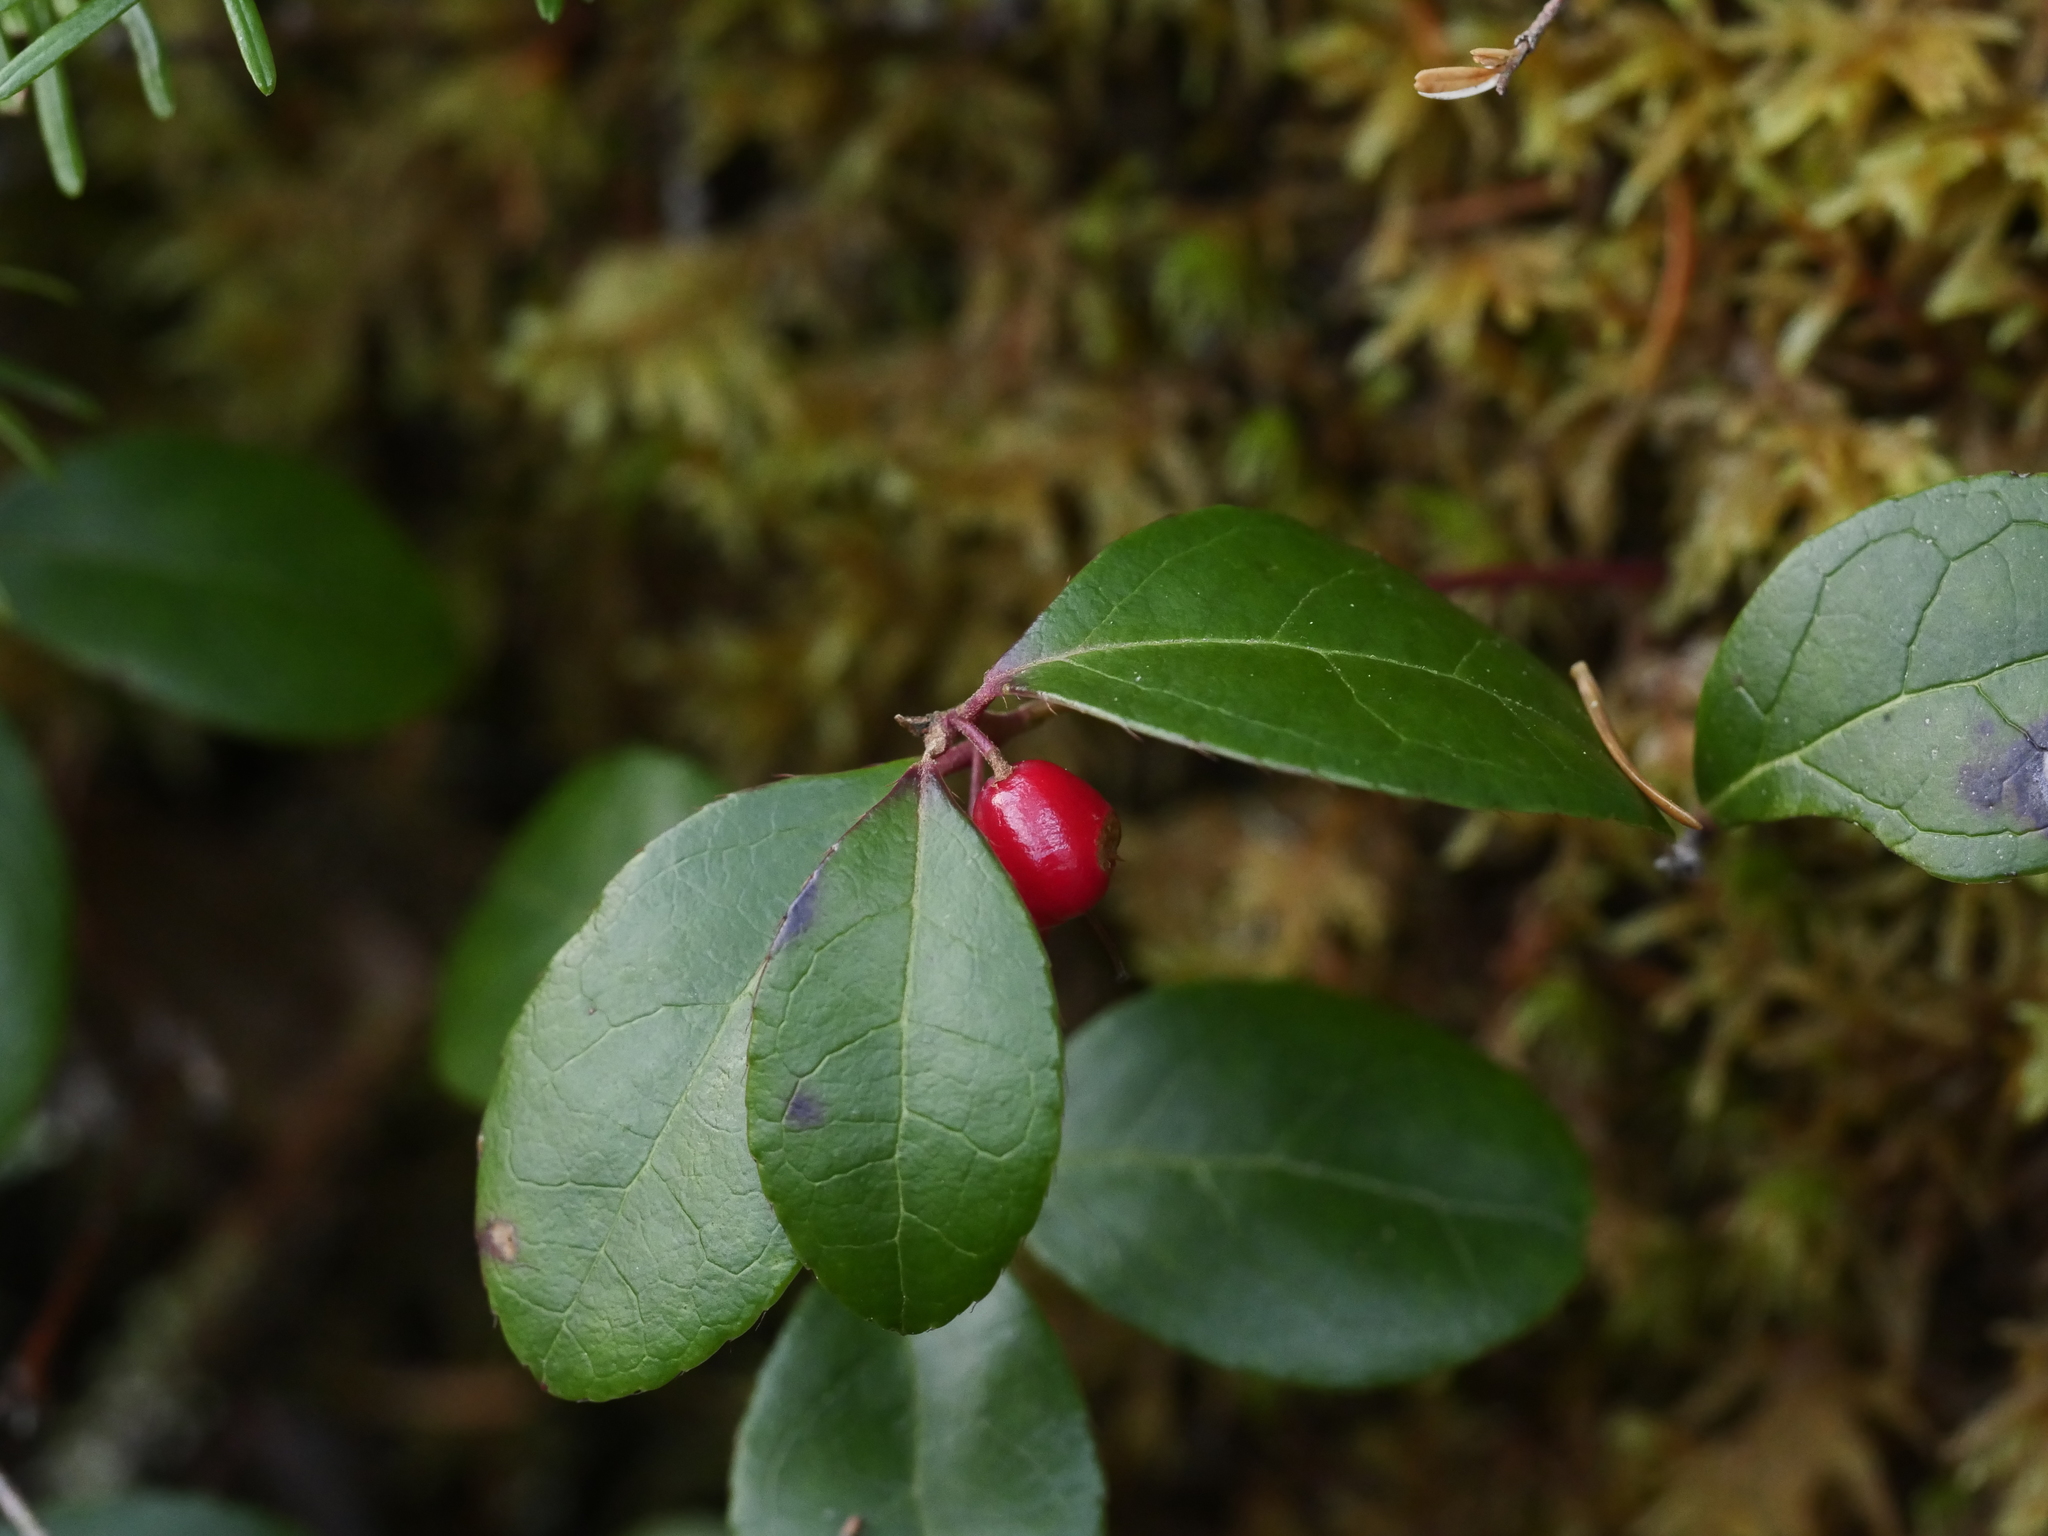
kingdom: Plantae
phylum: Tracheophyta
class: Magnoliopsida
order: Ericales
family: Ericaceae
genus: Gaultheria
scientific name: Gaultheria procumbens
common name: Checkerberry
